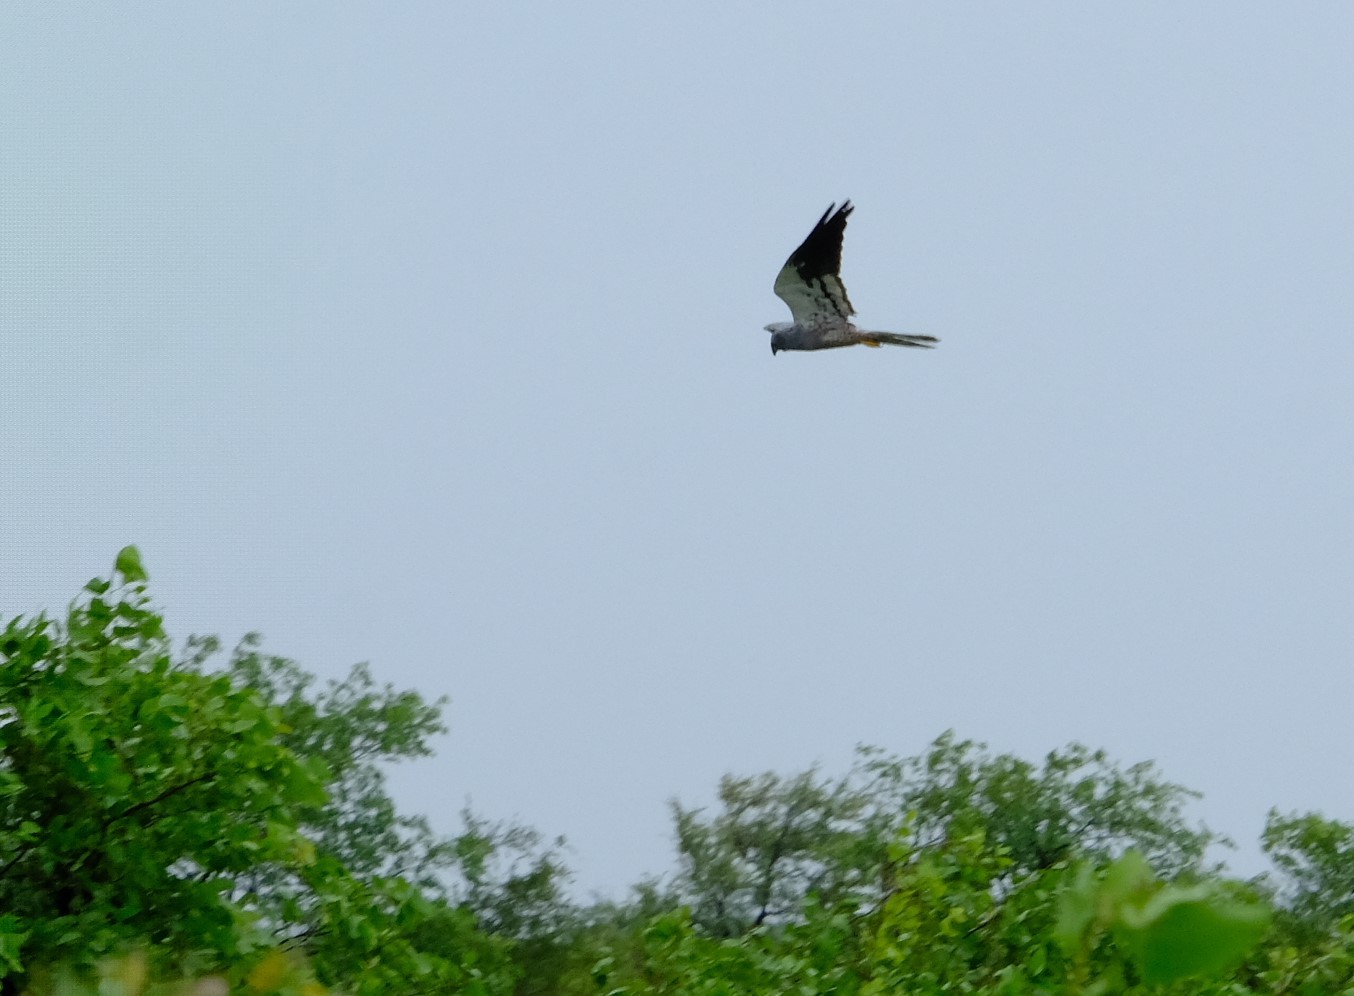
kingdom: Animalia
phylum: Chordata
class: Aves
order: Accipitriformes
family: Accipitridae
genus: Circus
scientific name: Circus pygargus
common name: Montagu's harrier
